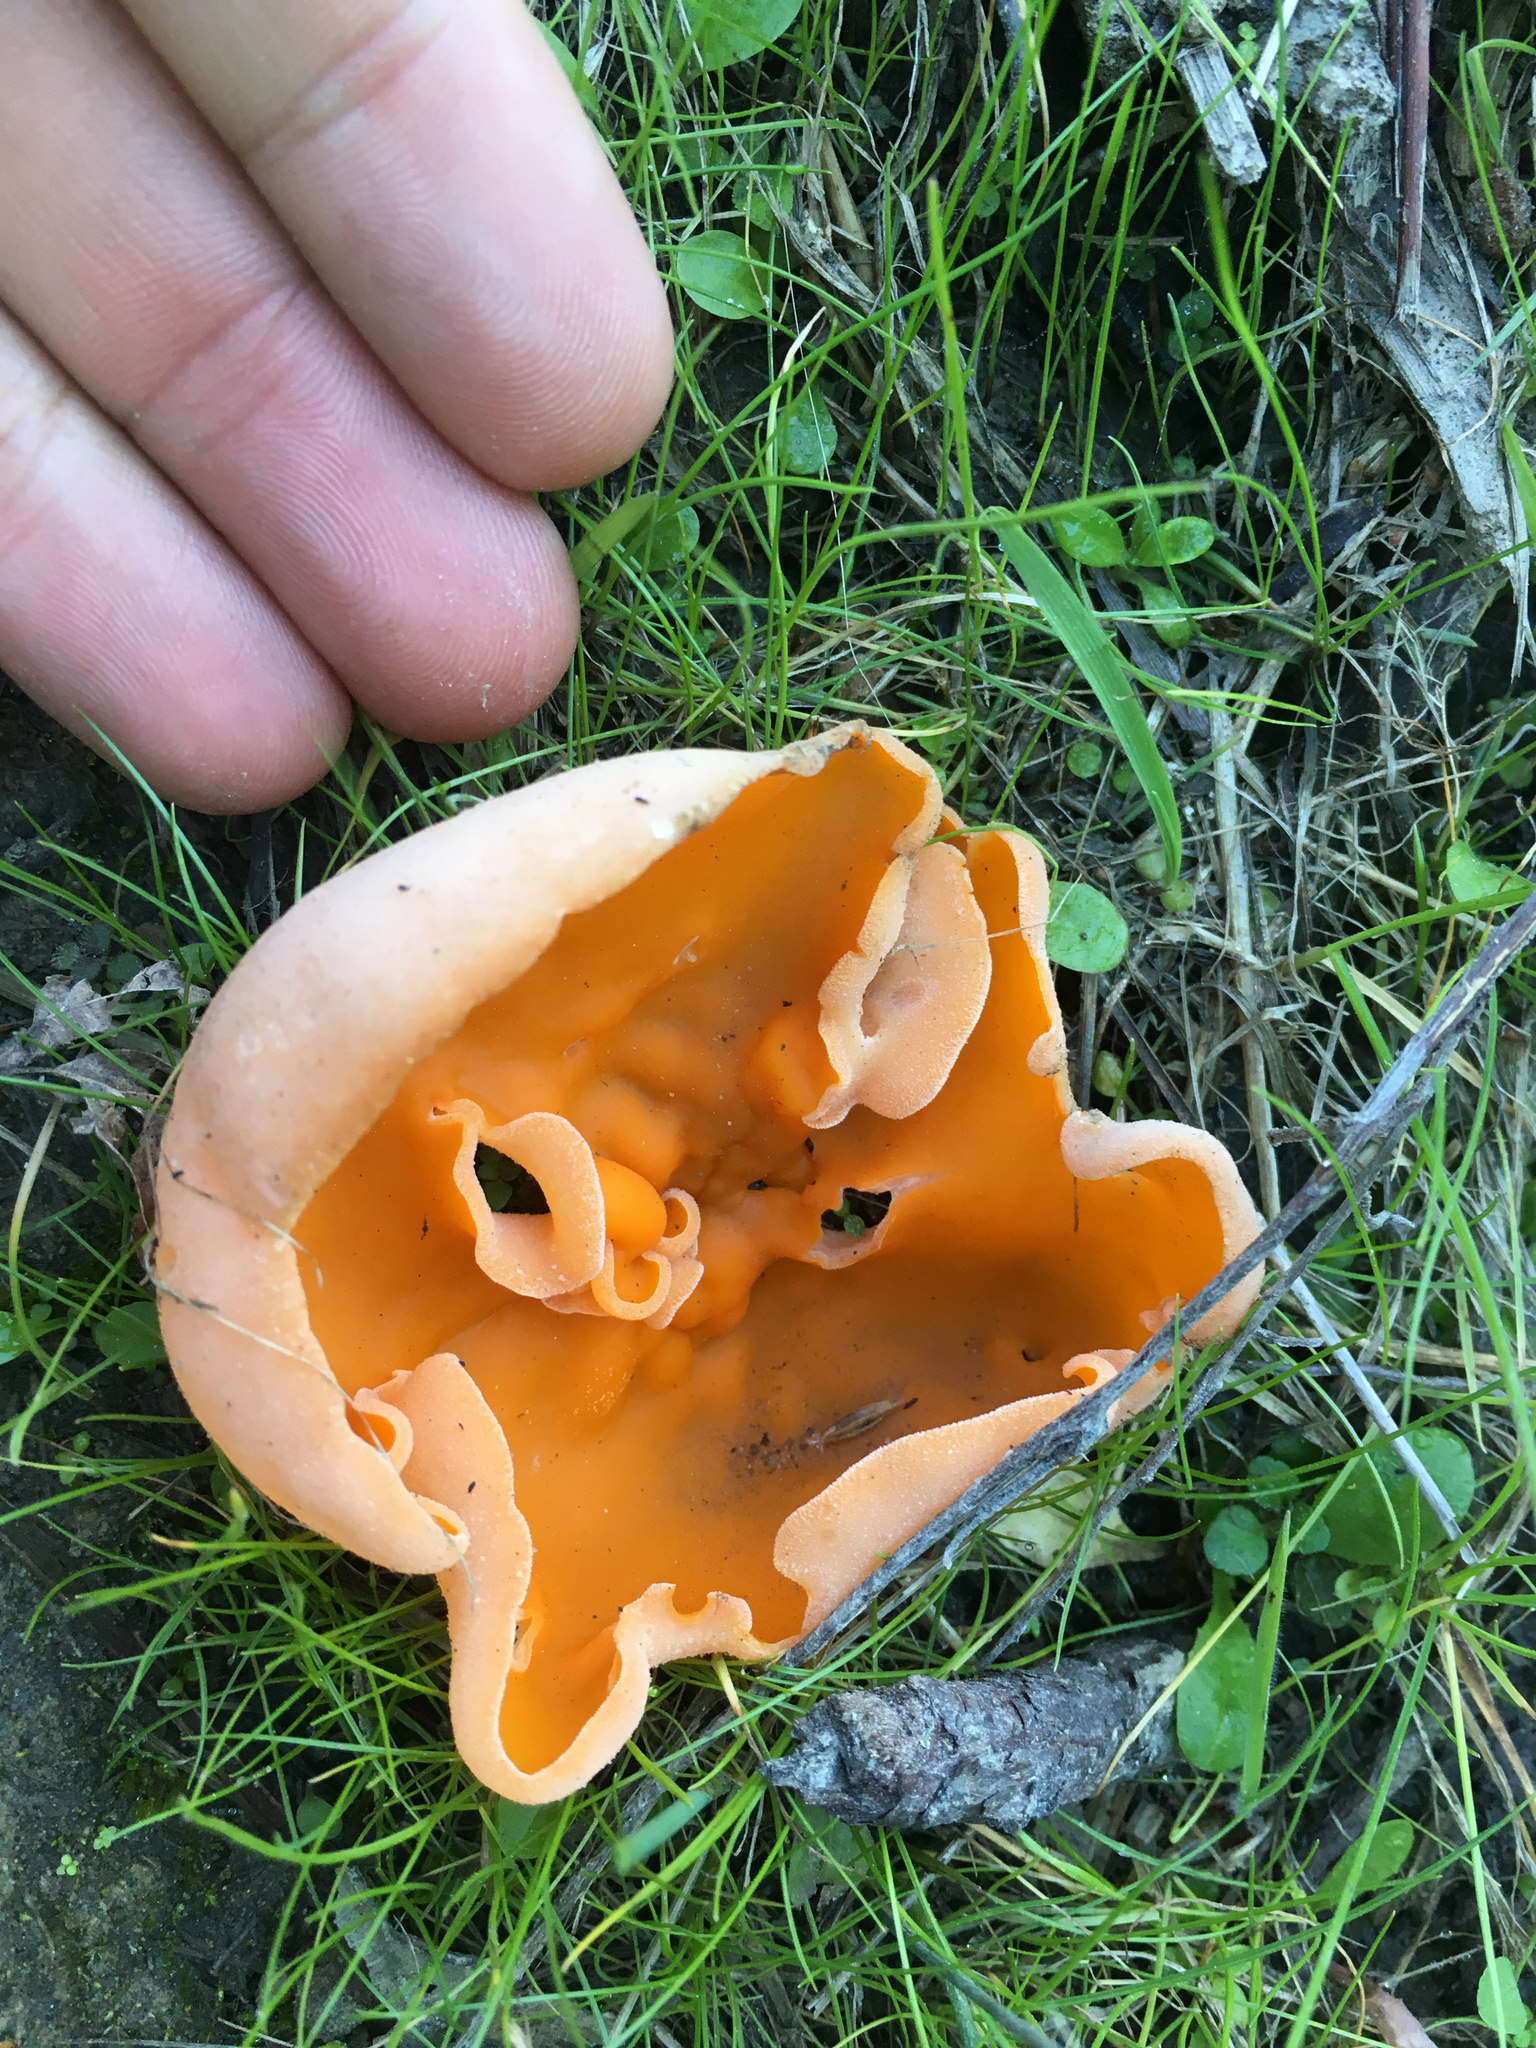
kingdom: Fungi
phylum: Ascomycota
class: Pezizomycetes
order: Pezizales
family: Pyronemataceae
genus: Aleuria
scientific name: Aleuria aurantia
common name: Orange peel fungus
